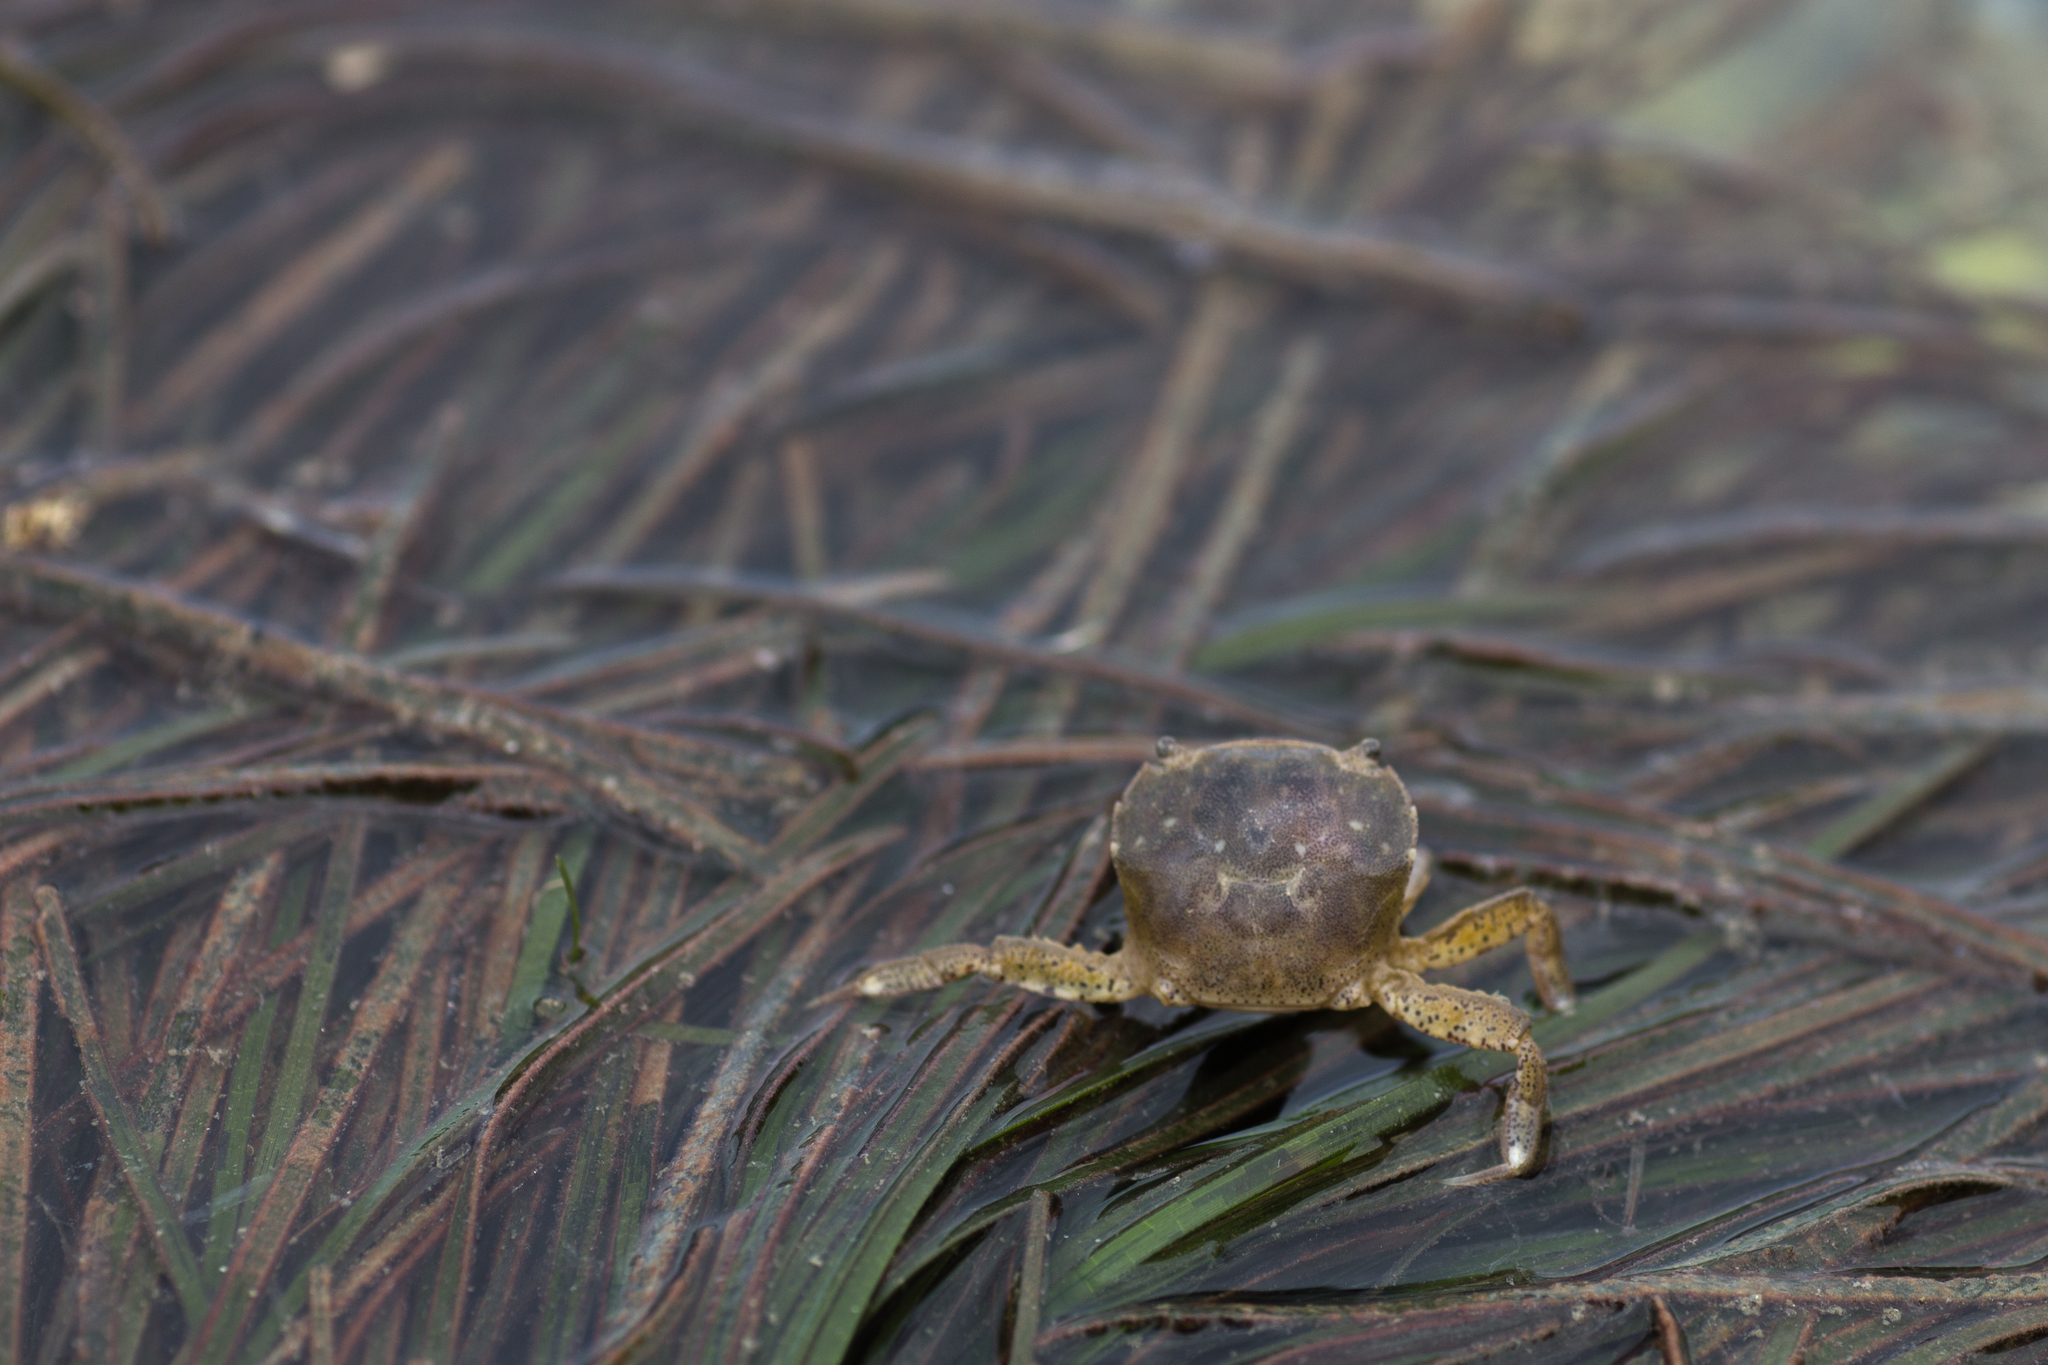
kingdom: Animalia
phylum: Arthropoda
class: Malacostraca
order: Decapoda
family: Varunidae
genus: Hemigrapsus
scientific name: Hemigrapsus crenulatus
